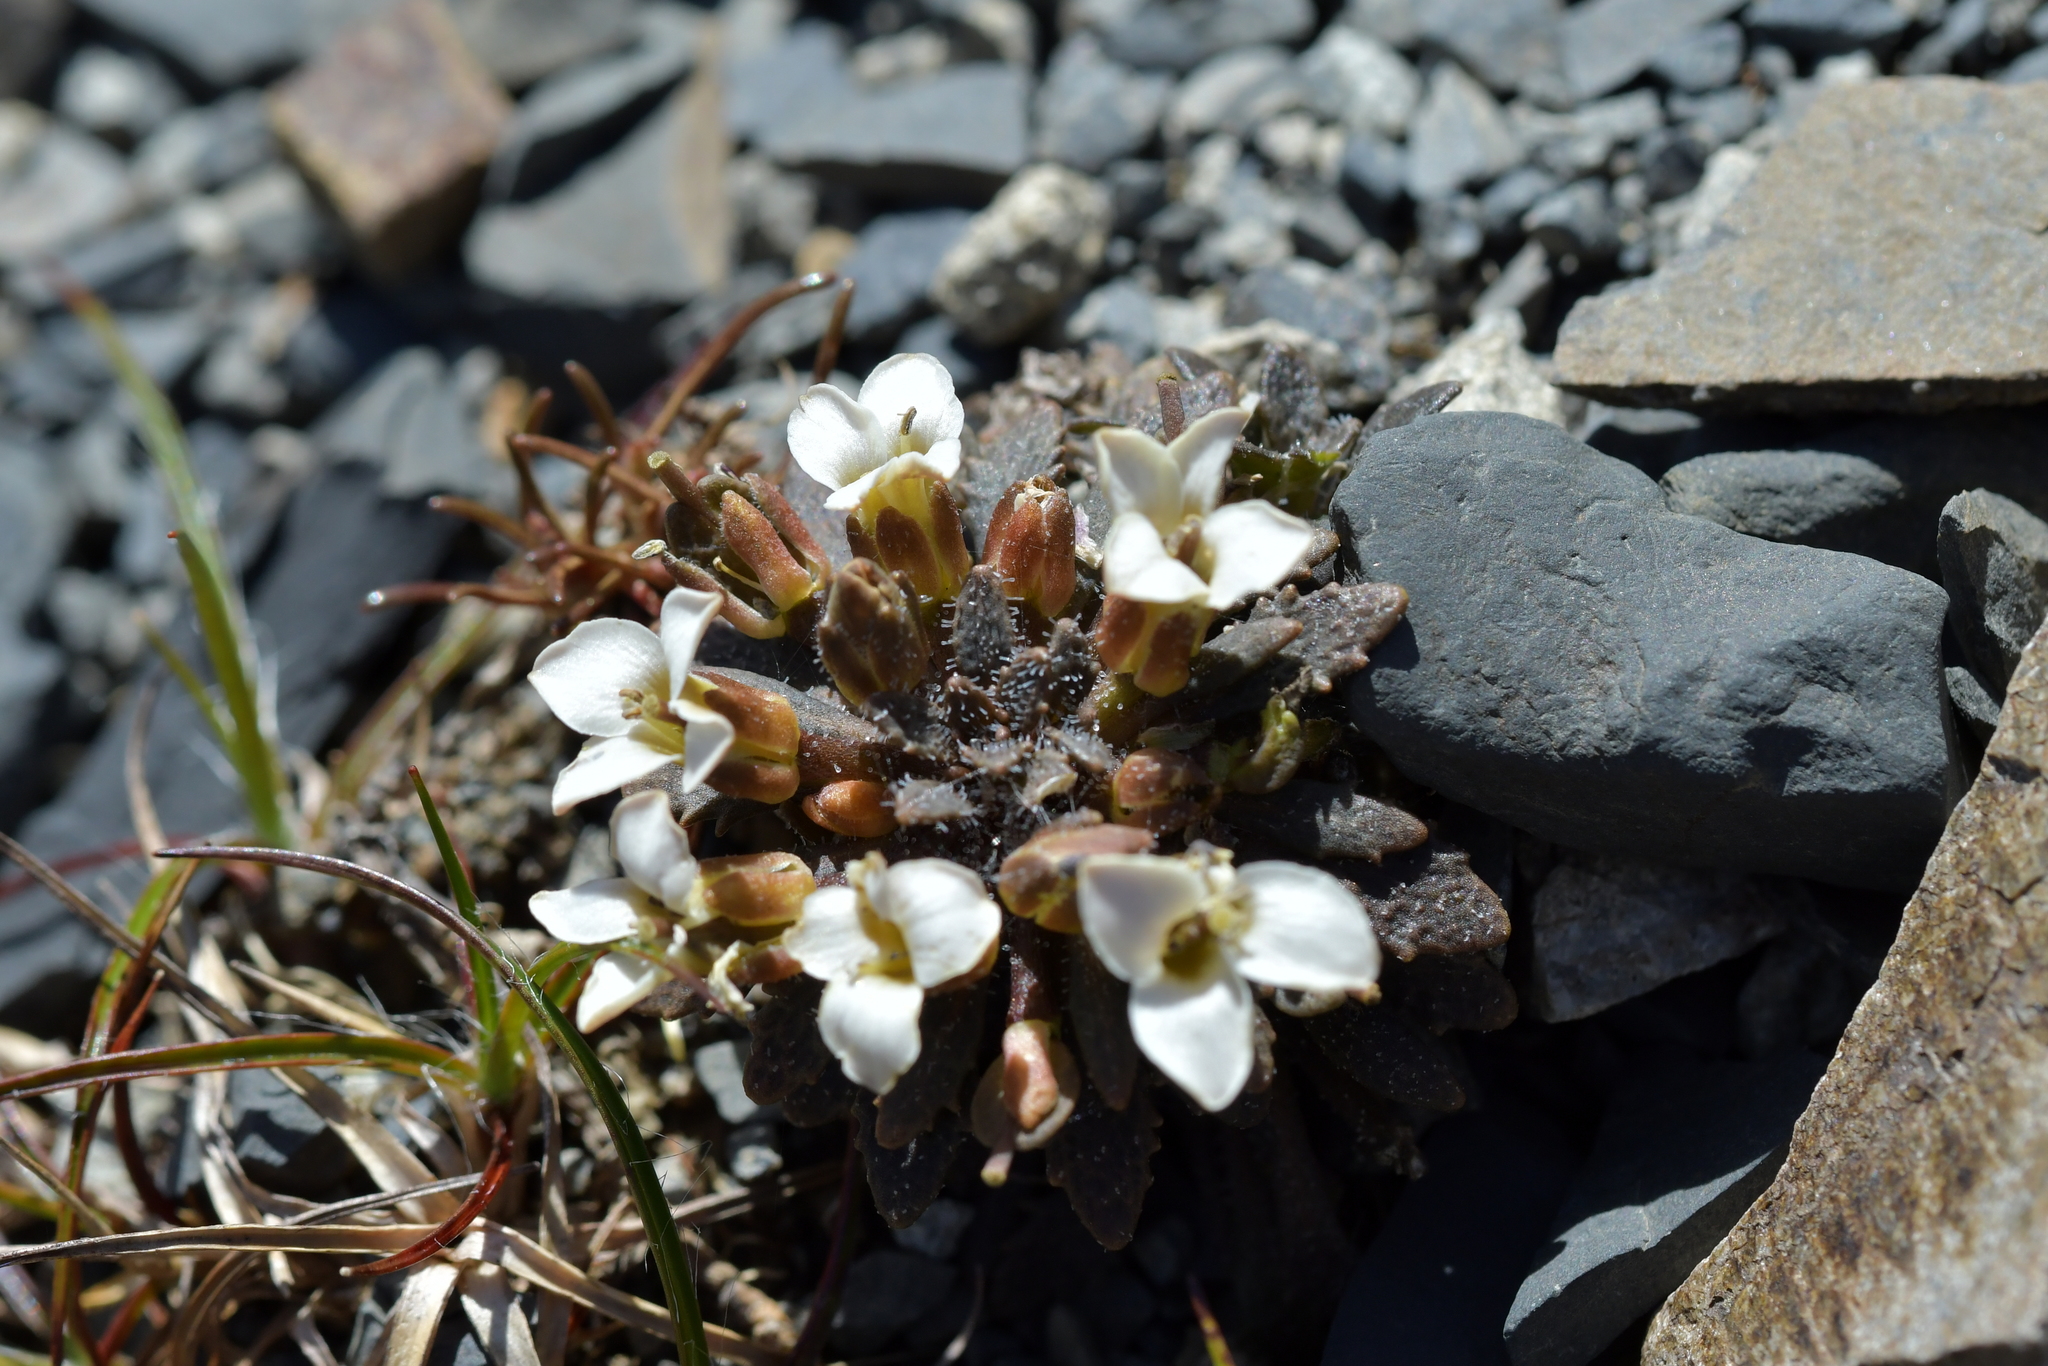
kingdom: Plantae
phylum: Tracheophyta
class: Magnoliopsida
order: Brassicales
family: Brassicaceae
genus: Notothlaspi
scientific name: Notothlaspi australe
